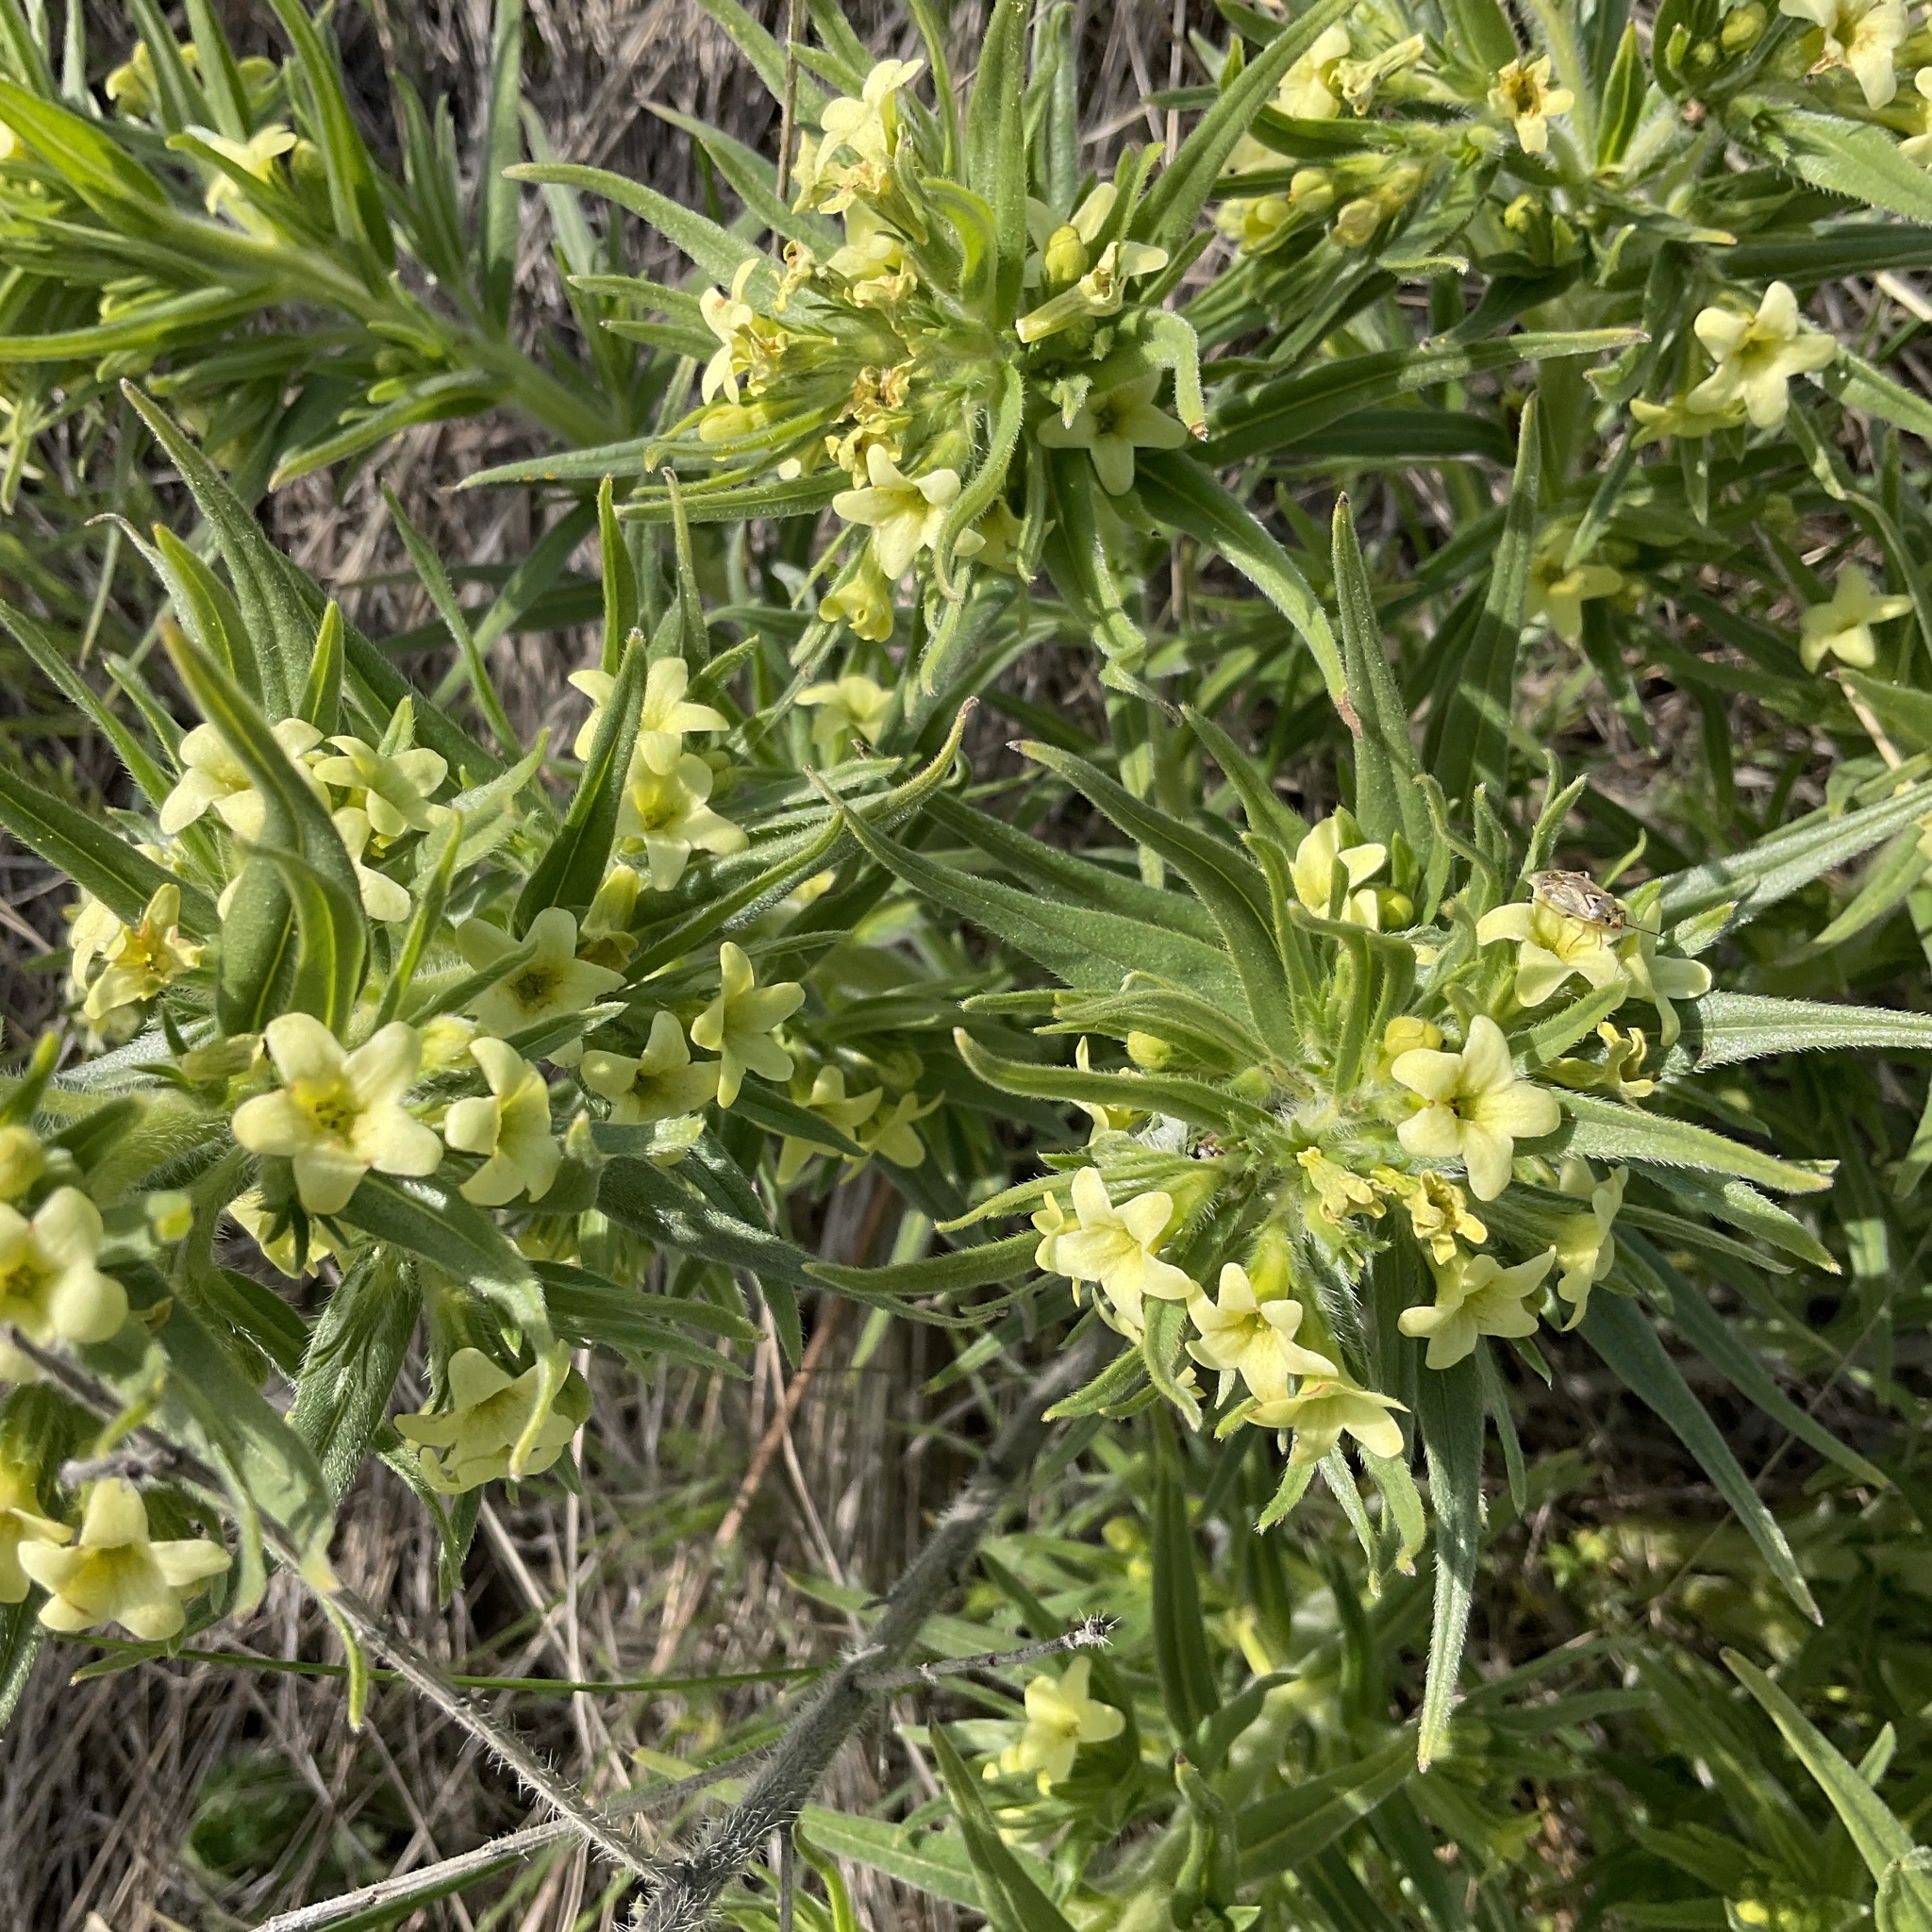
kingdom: Plantae
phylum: Tracheophyta
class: Magnoliopsida
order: Boraginales
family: Boraginaceae
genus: Lithospermum
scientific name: Lithospermum ruderale
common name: Western gromwell
